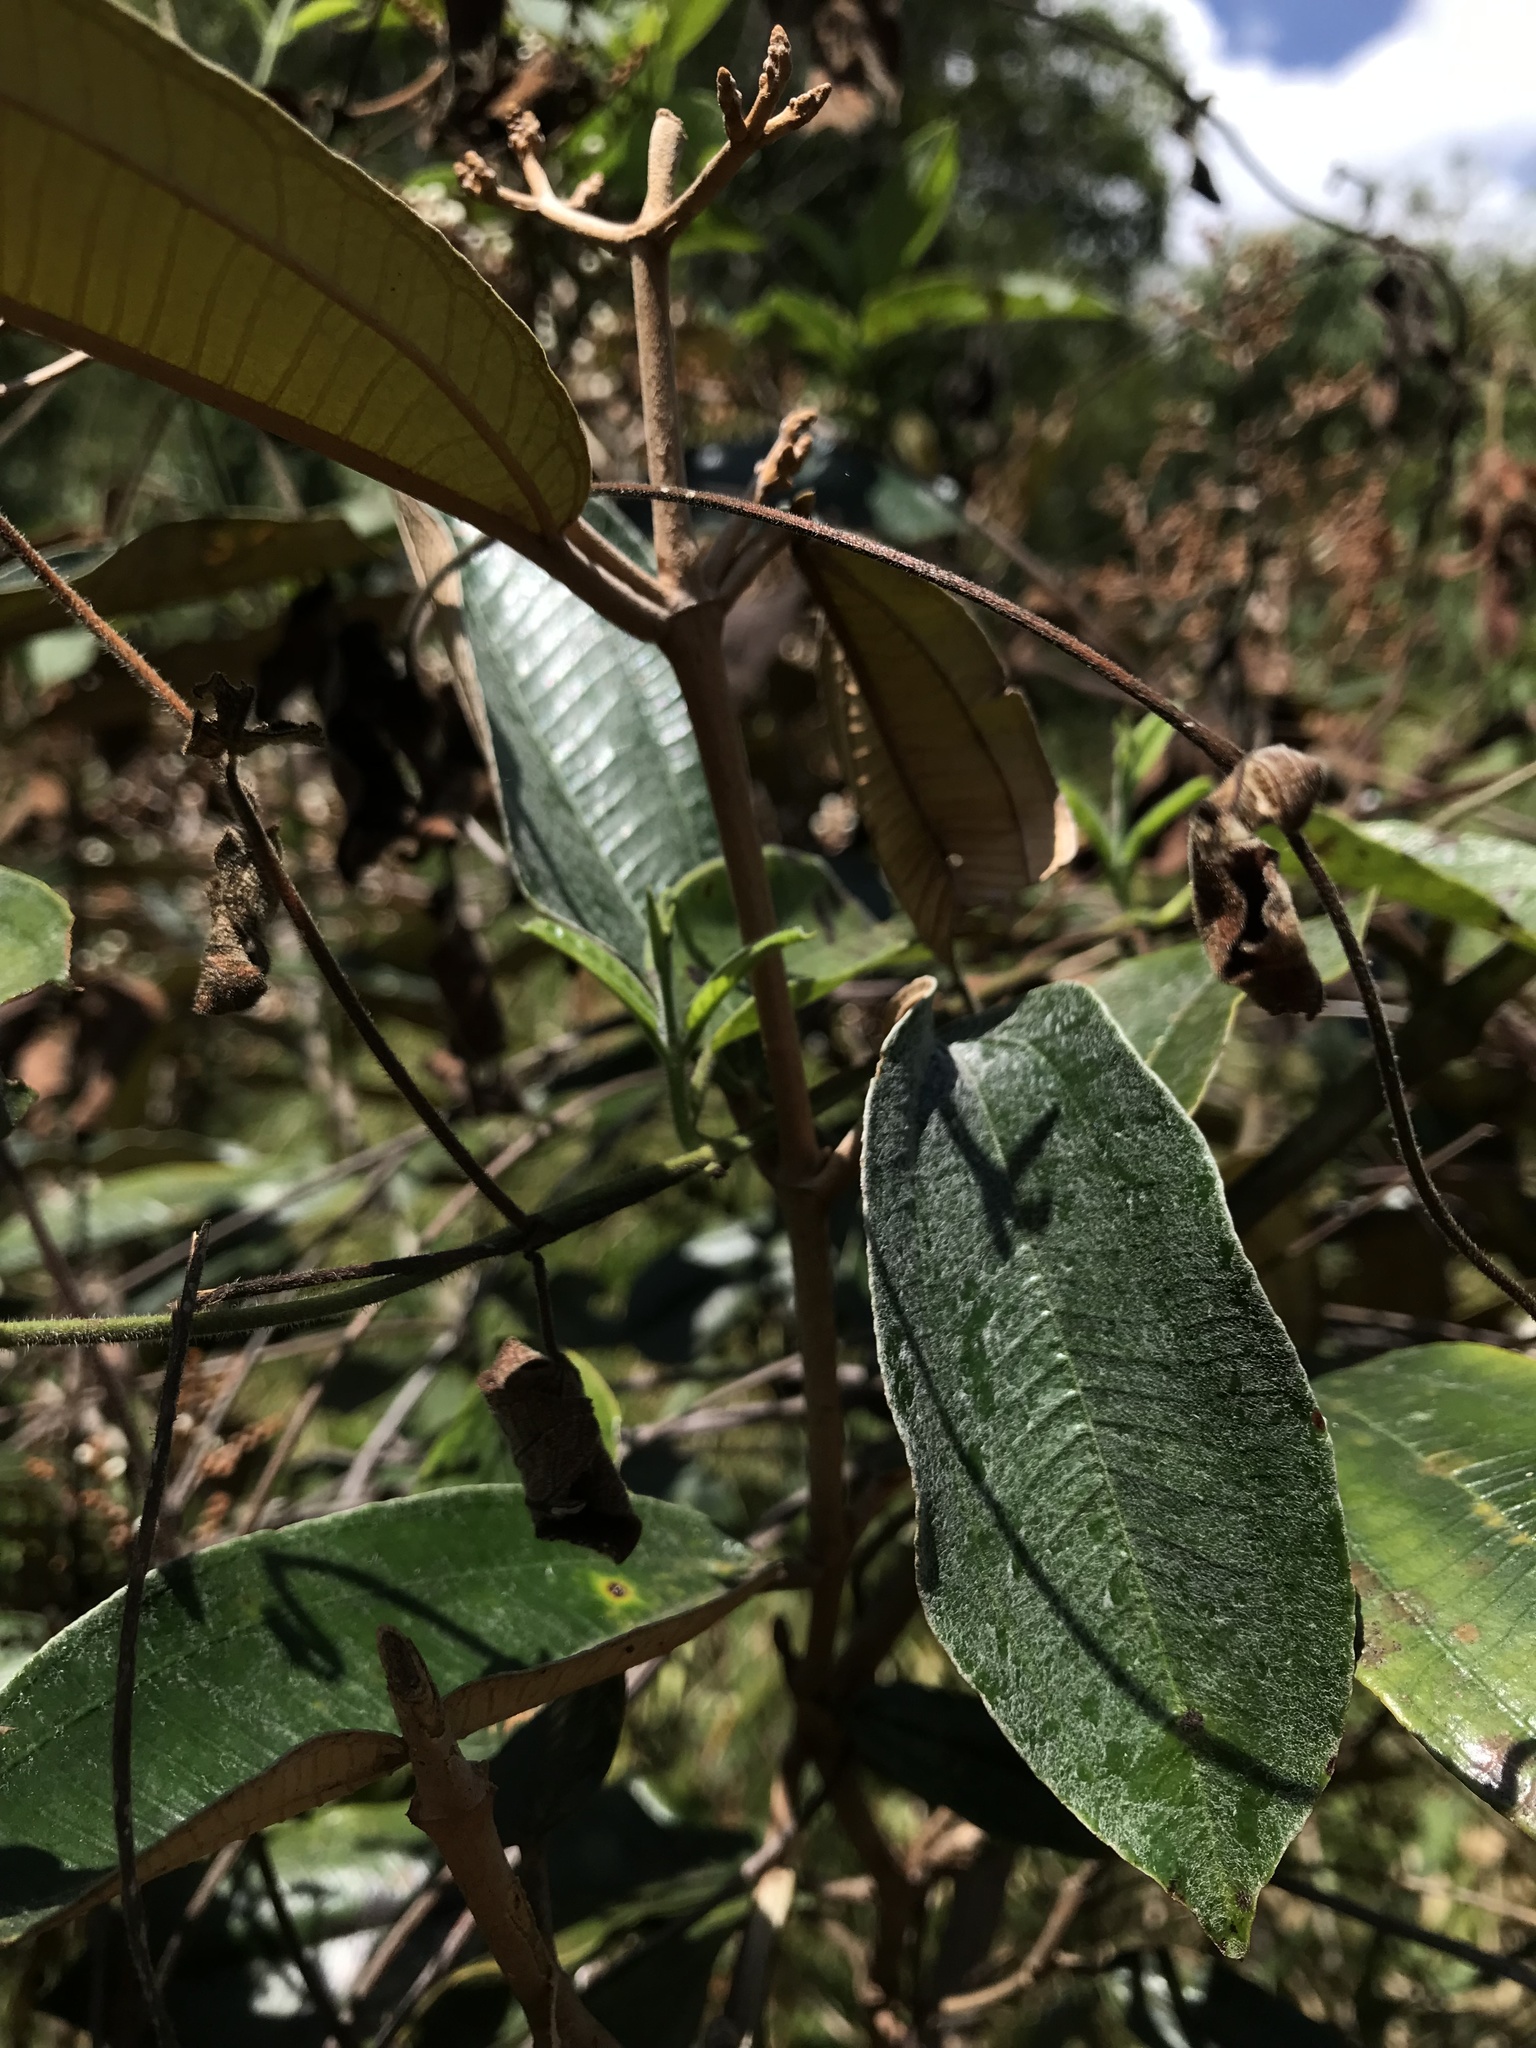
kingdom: Plantae
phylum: Tracheophyta
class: Magnoliopsida
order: Myrtales
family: Melastomataceae
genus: Miconia
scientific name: Miconia albicans
